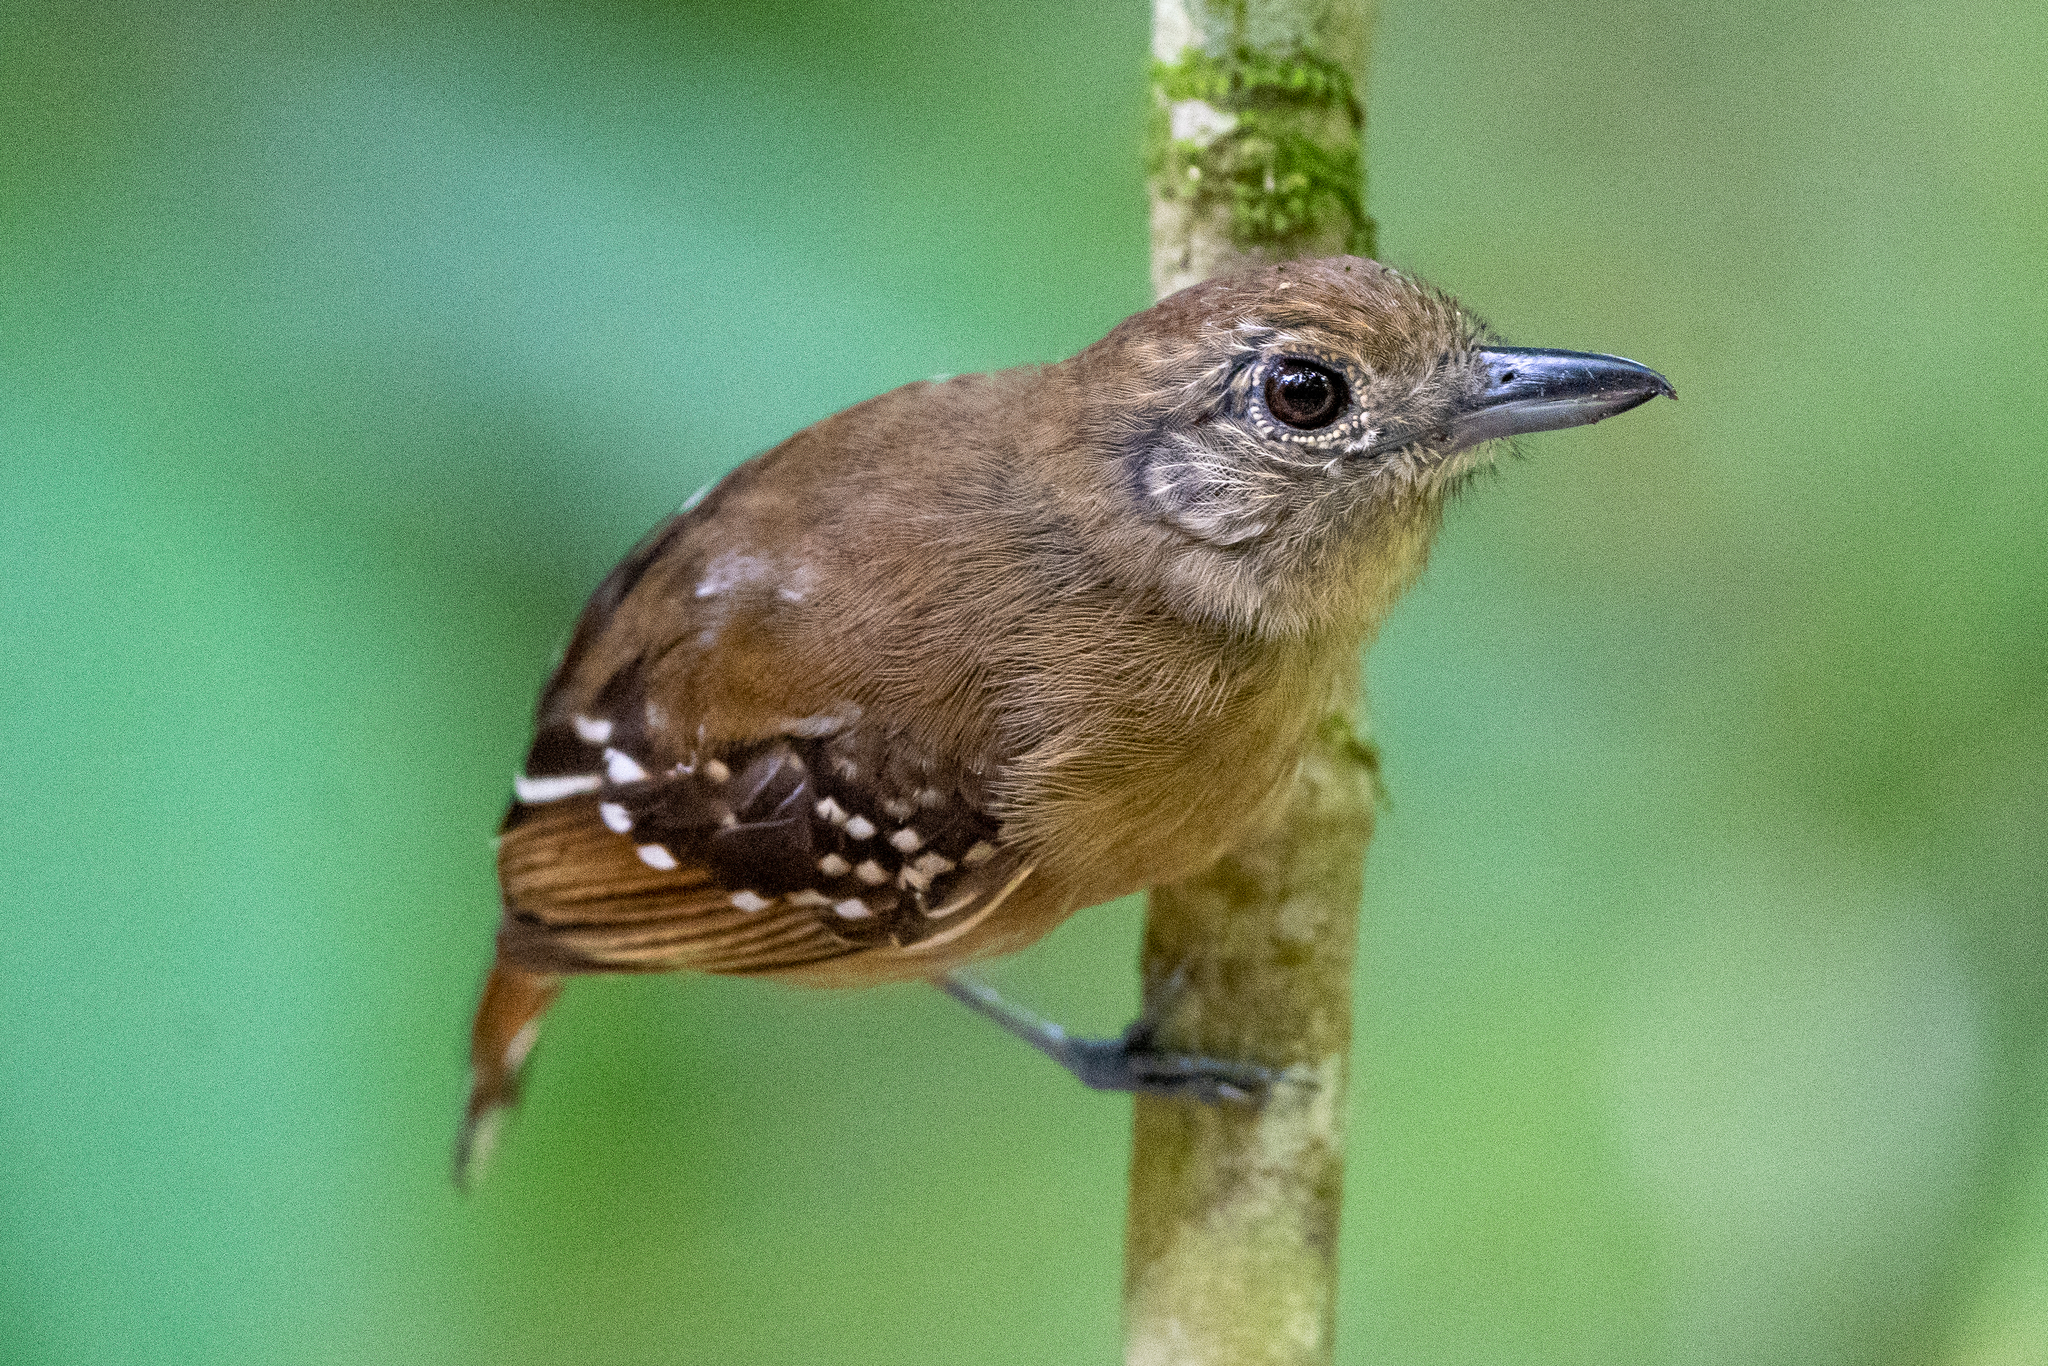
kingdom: Animalia
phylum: Chordata
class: Aves
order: Passeriformes
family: Thamnophilidae
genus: Thamnophilus
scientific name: Thamnophilus atrinucha
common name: Black-crowned antshrike
